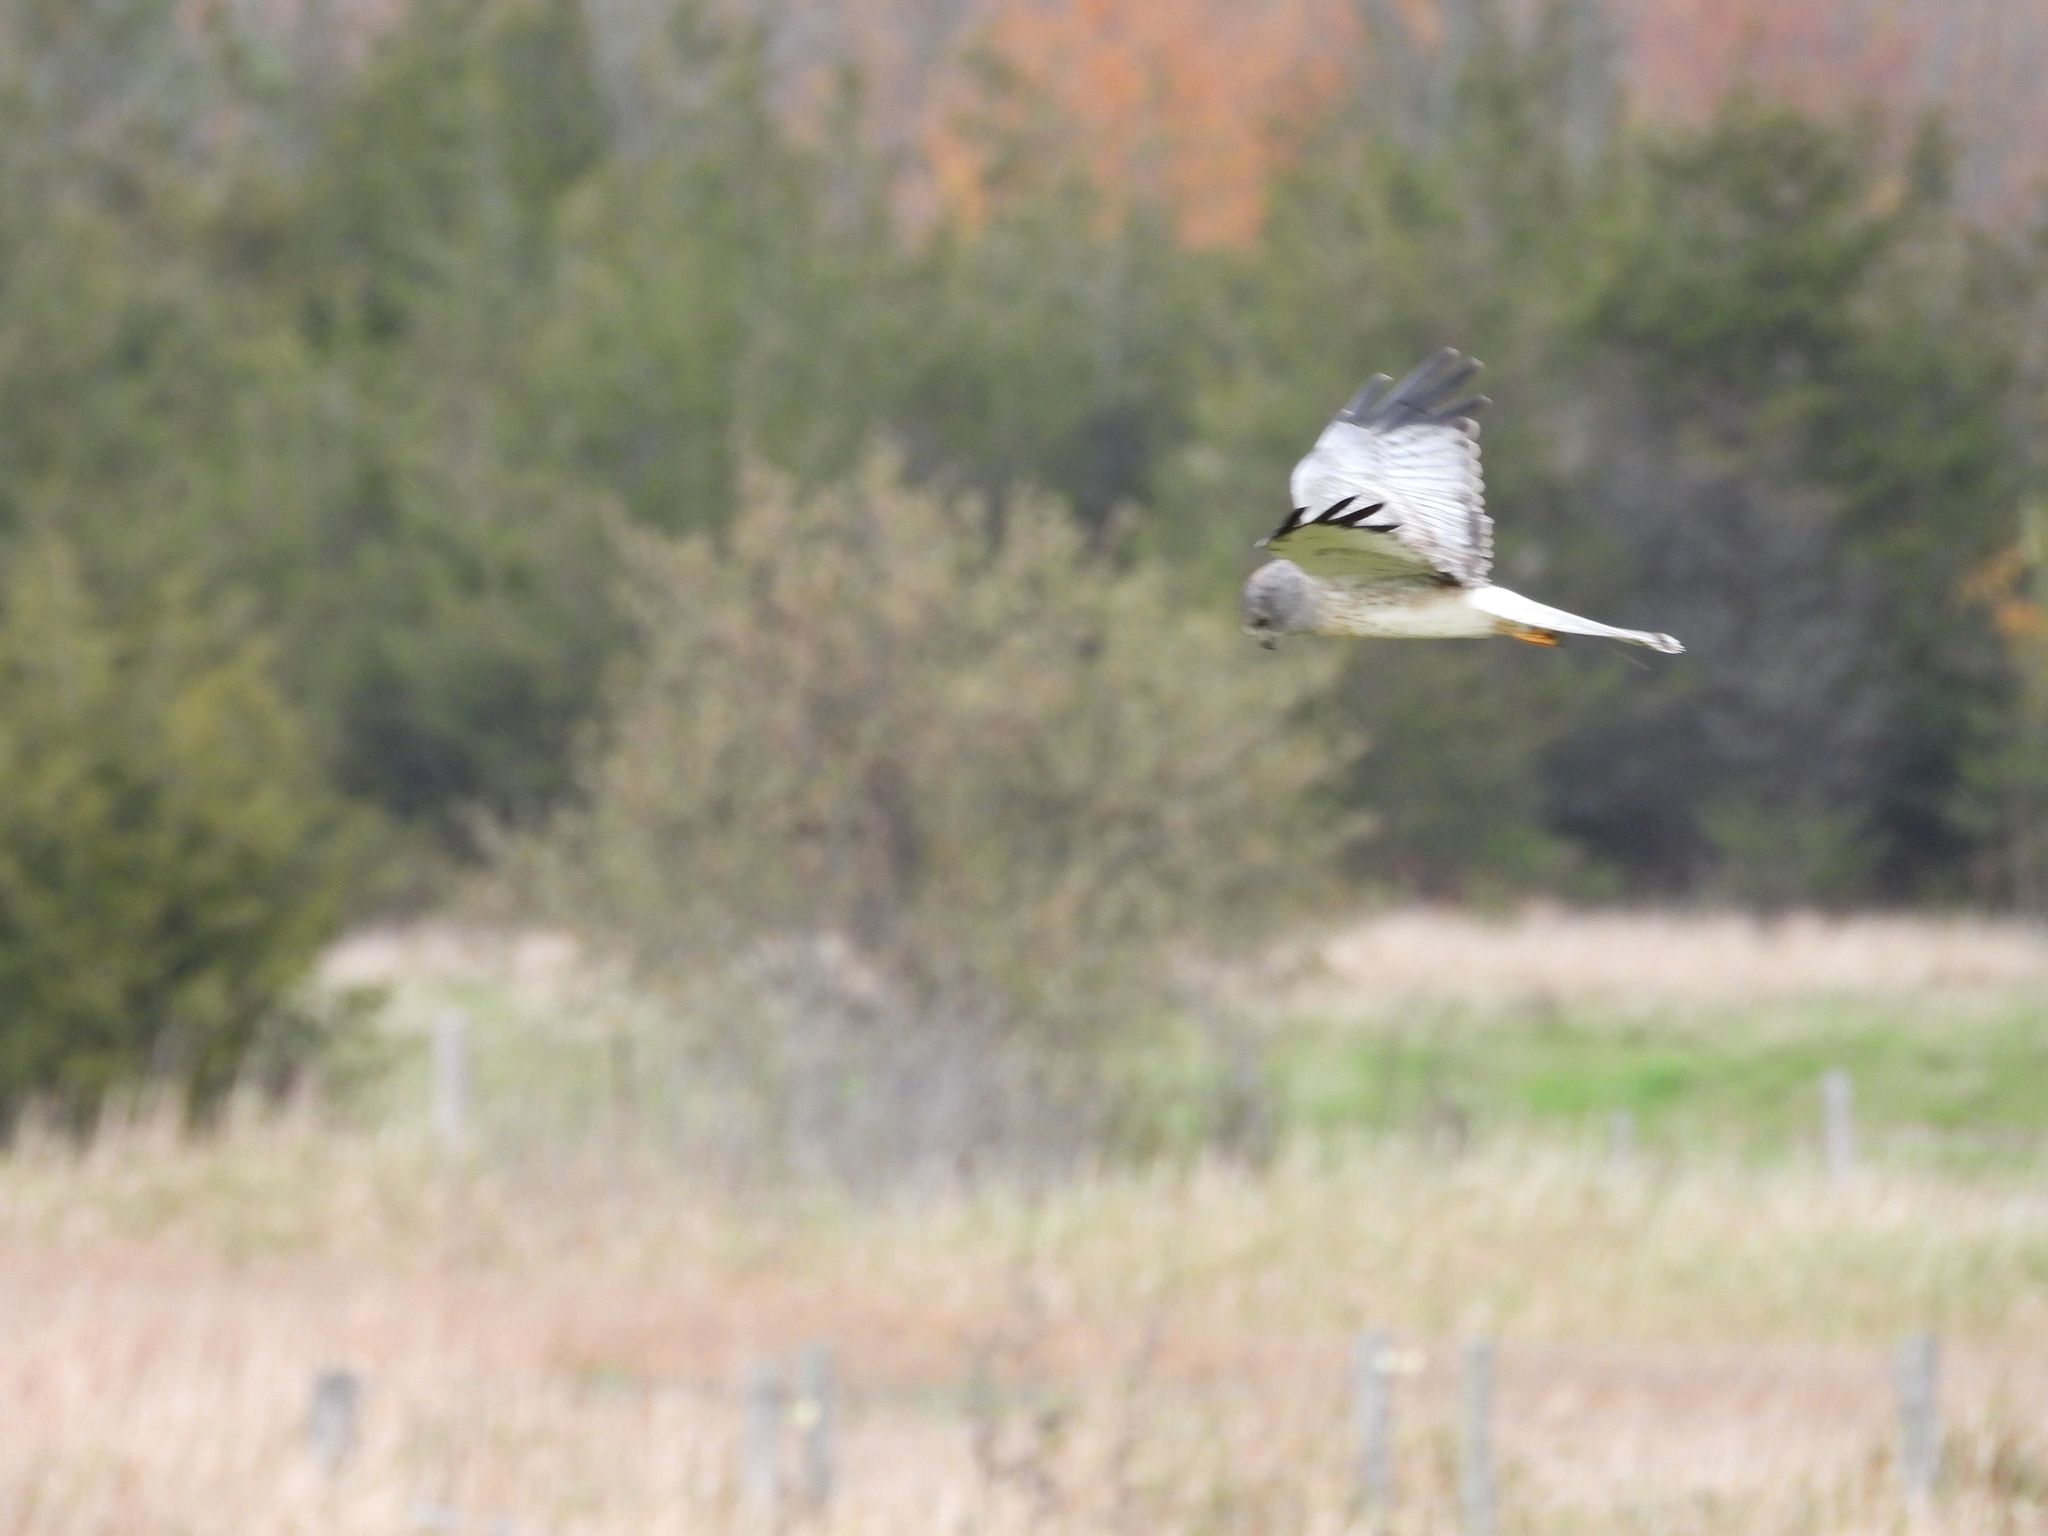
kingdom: Animalia
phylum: Chordata
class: Aves
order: Accipitriformes
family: Accipitridae
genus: Circus
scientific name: Circus cyaneus
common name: Hen harrier
